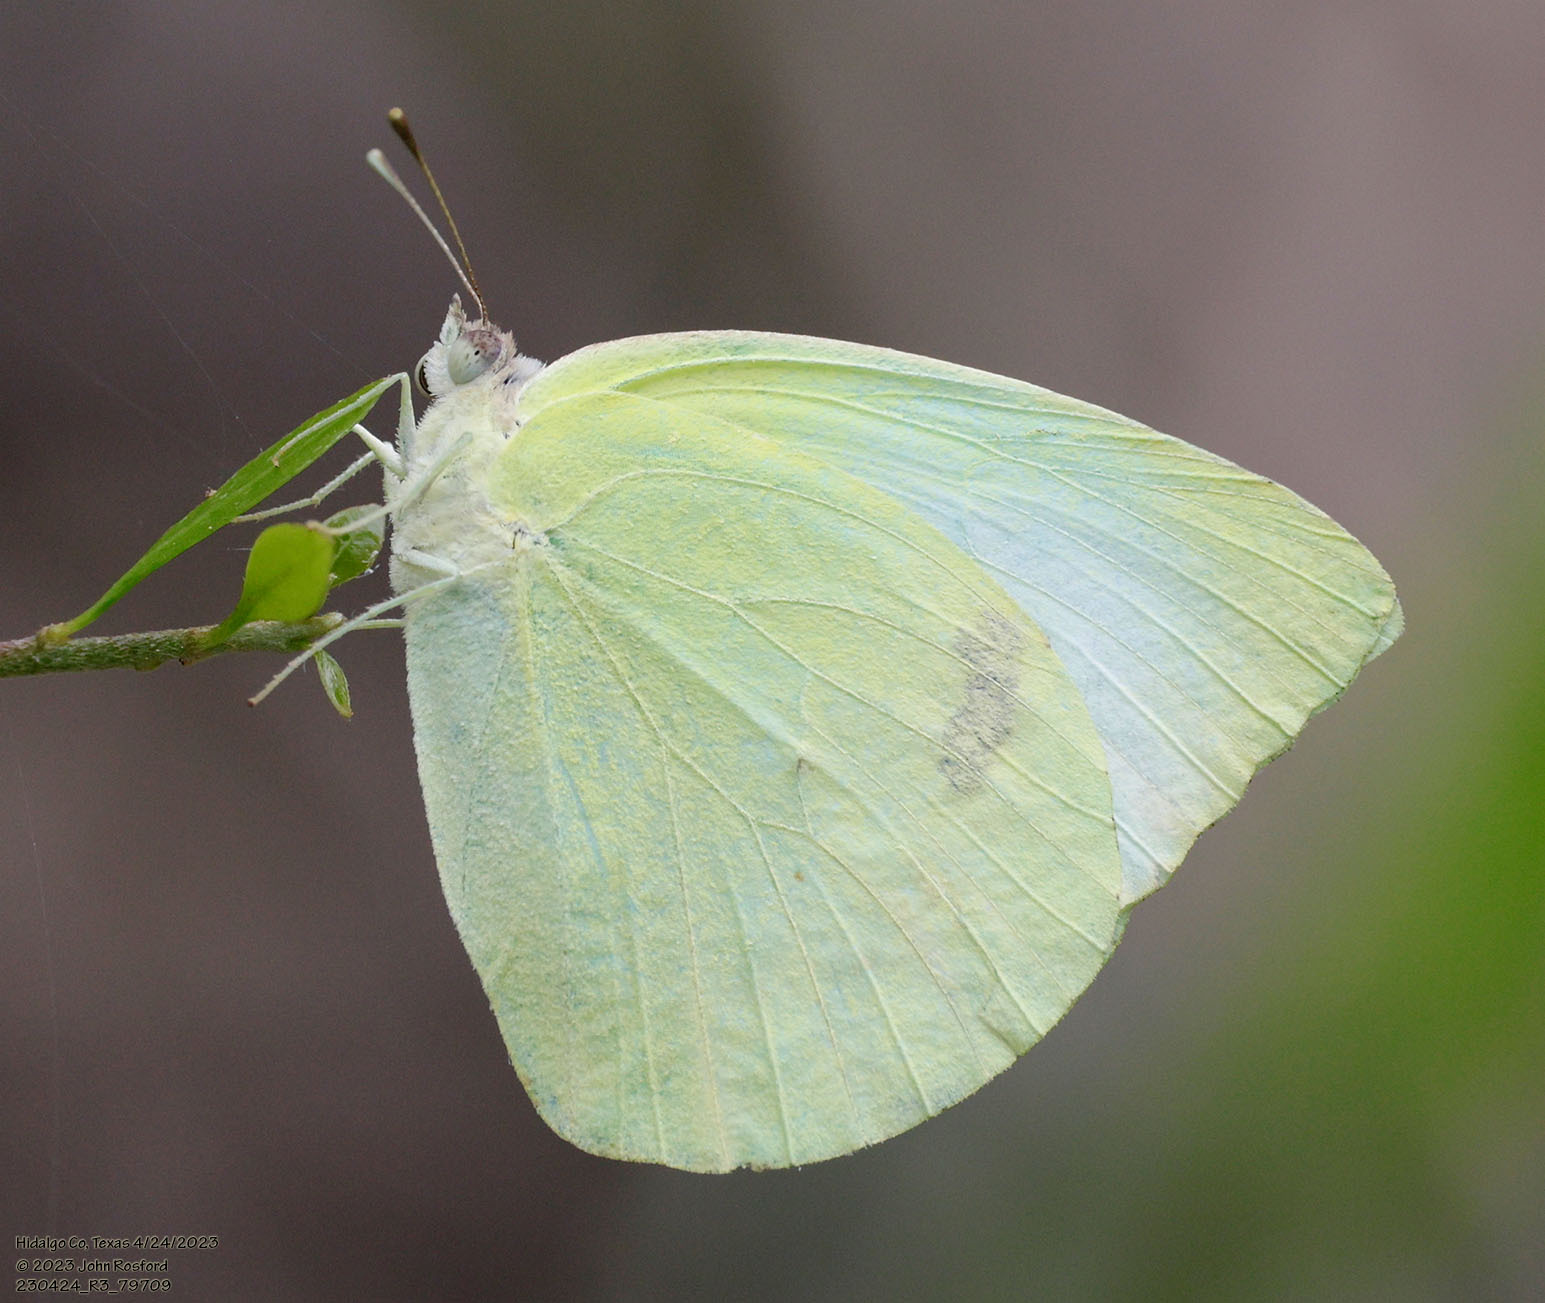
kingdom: Animalia
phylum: Arthropoda
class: Insecta
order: Lepidoptera
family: Pieridae
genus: Kricogonia
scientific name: Kricogonia lyside
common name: Guayacan sulphur,
